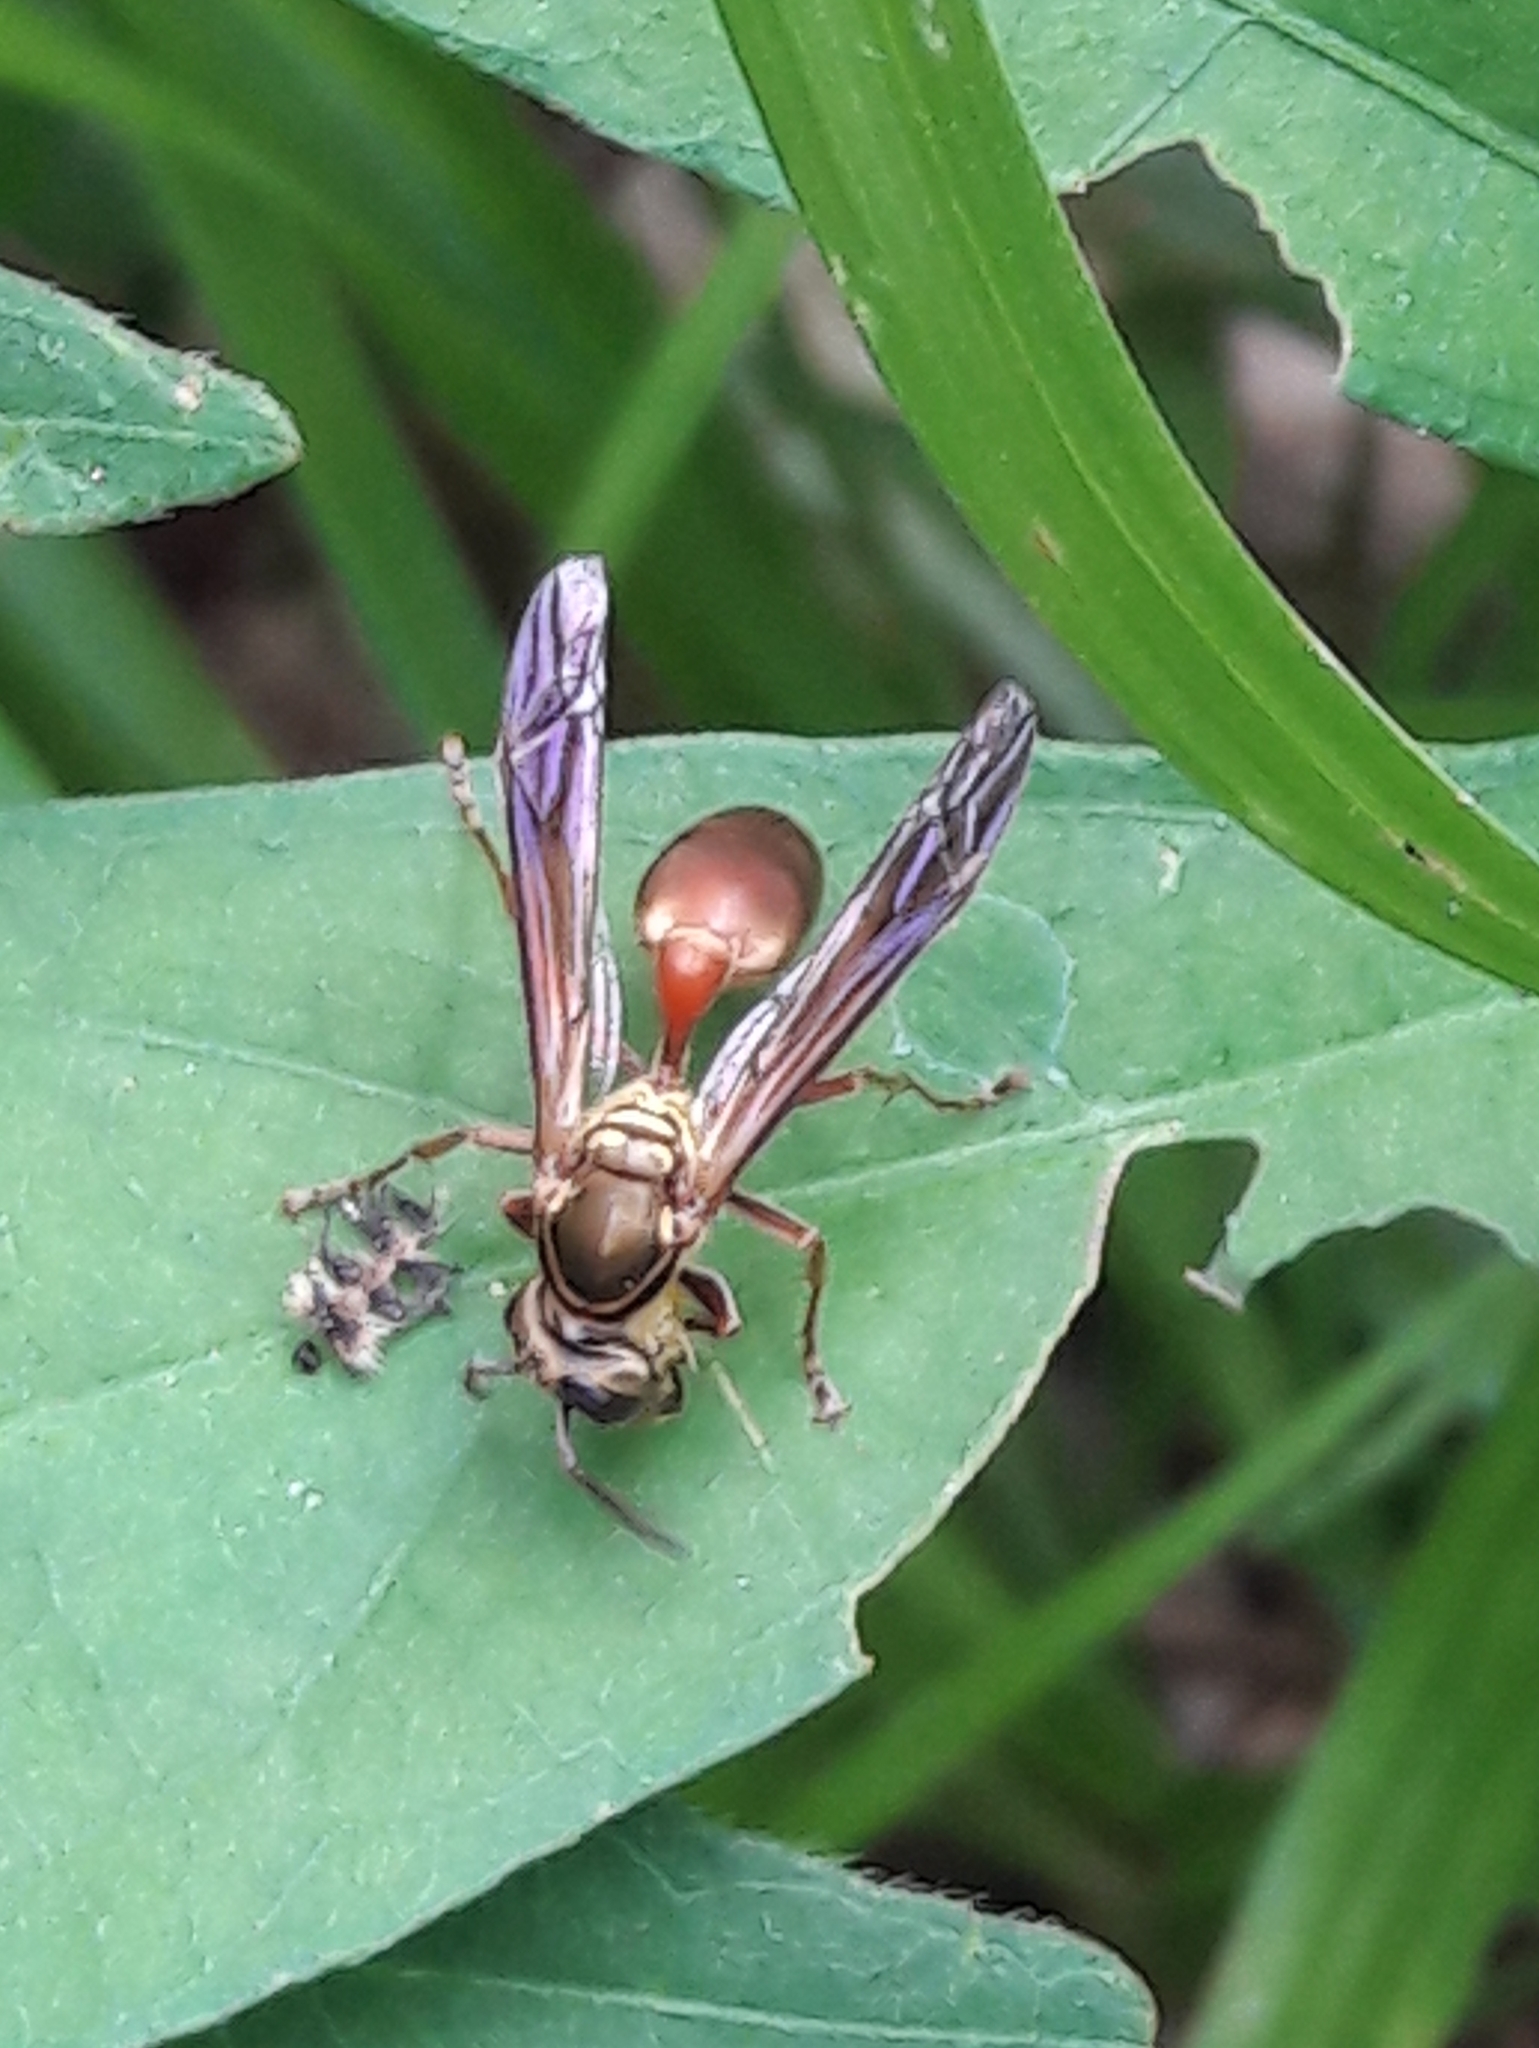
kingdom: Animalia
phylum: Arthropoda
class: Insecta
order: Hymenoptera
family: Eumenidae
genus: Polybia
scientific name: Polybia chrysothorax
